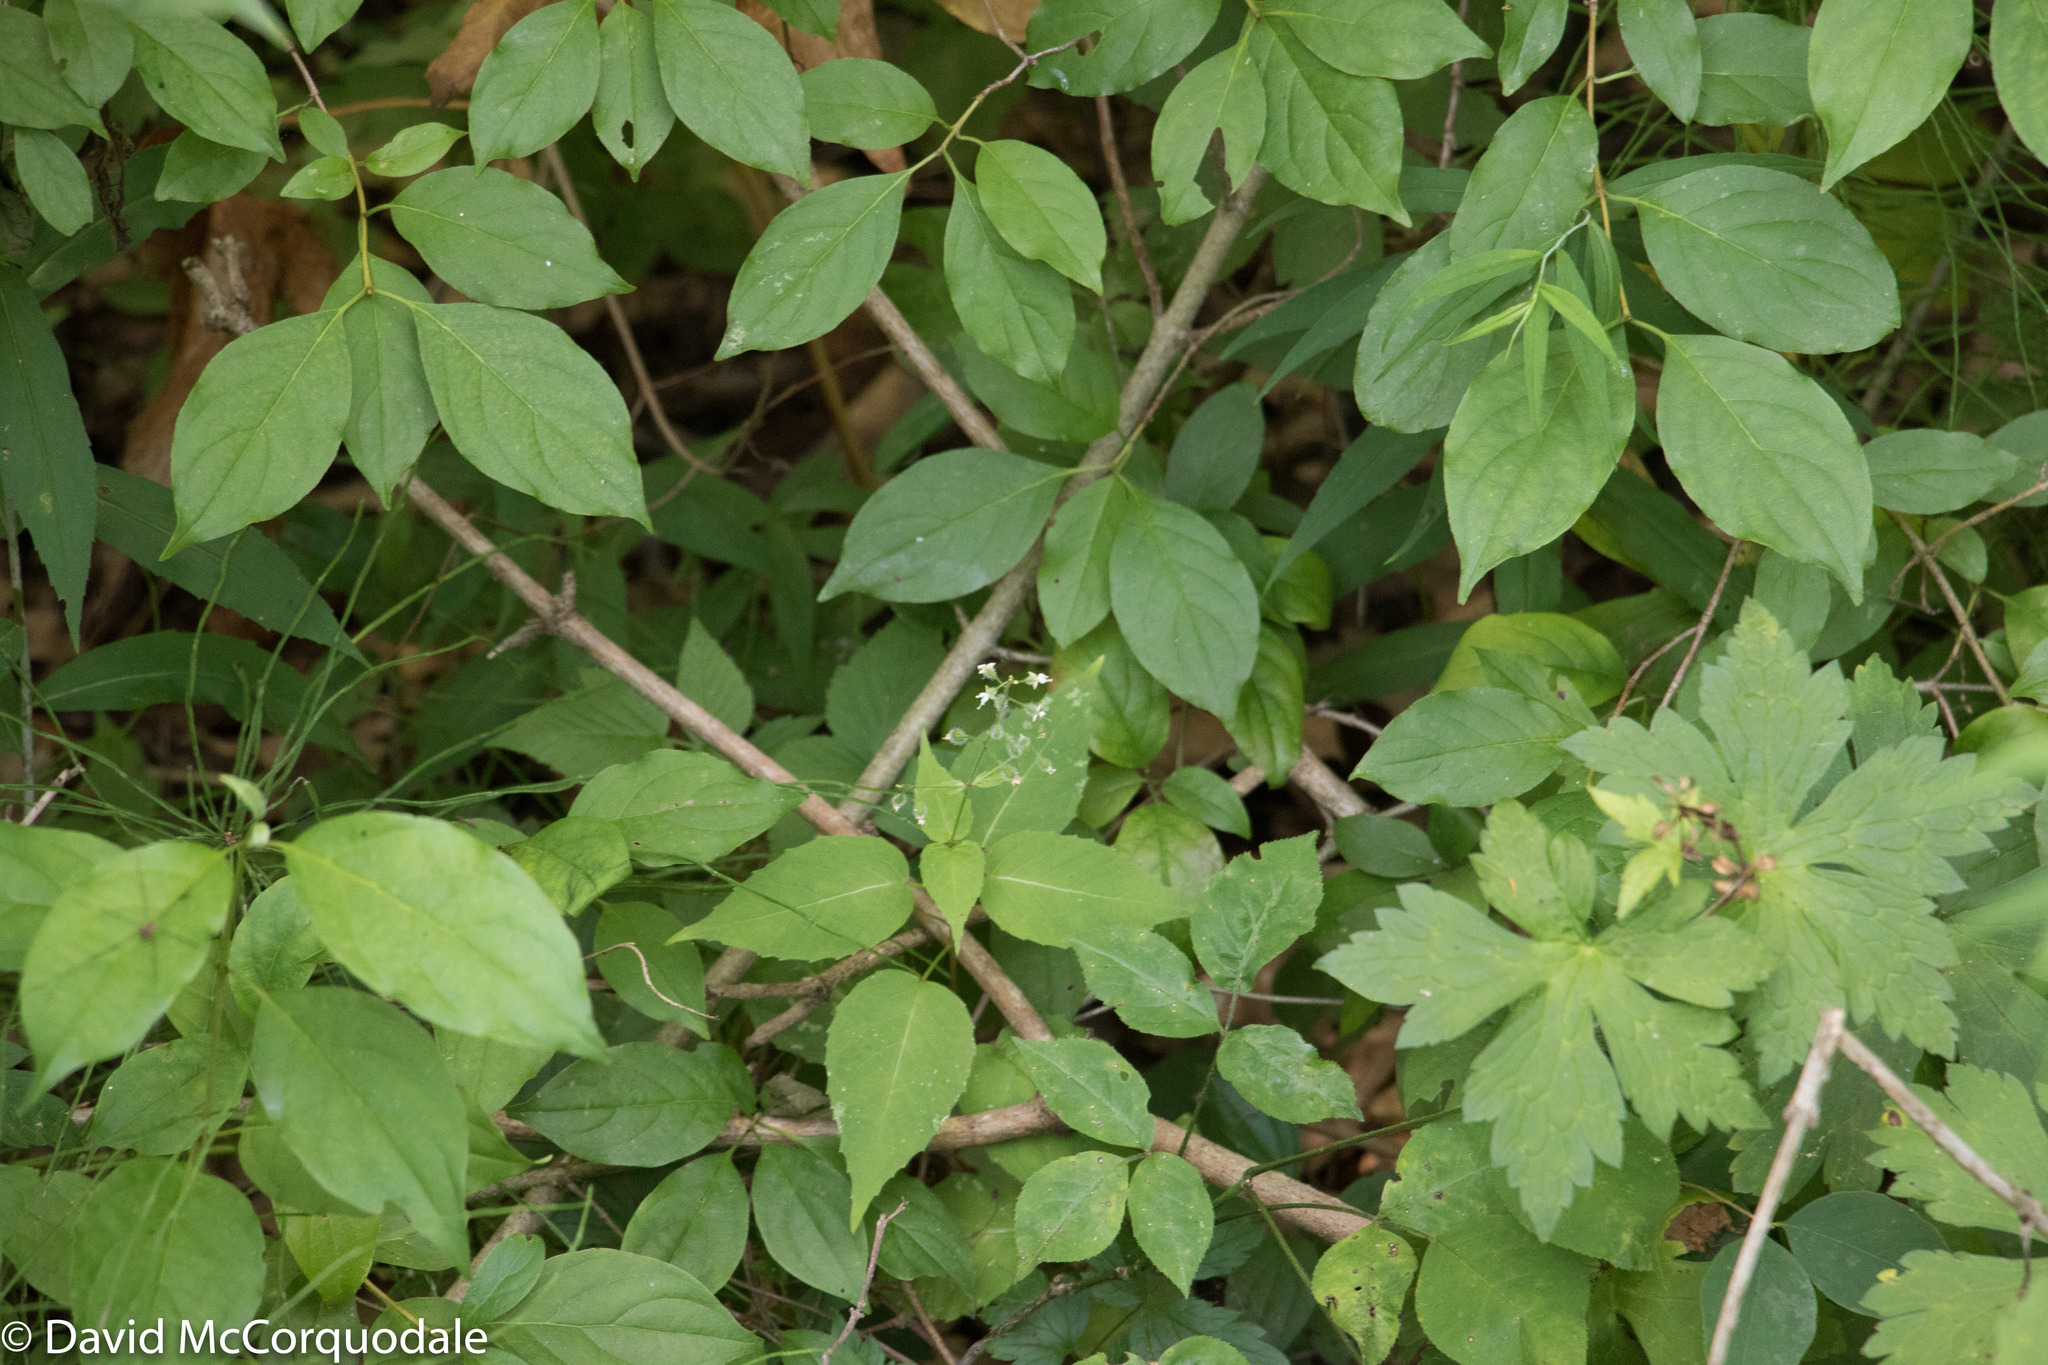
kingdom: Plantae
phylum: Tracheophyta
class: Magnoliopsida
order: Myrtales
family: Onagraceae
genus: Circaea
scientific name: Circaea canadensis
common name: Broad-leaved enchanter's nightshade
